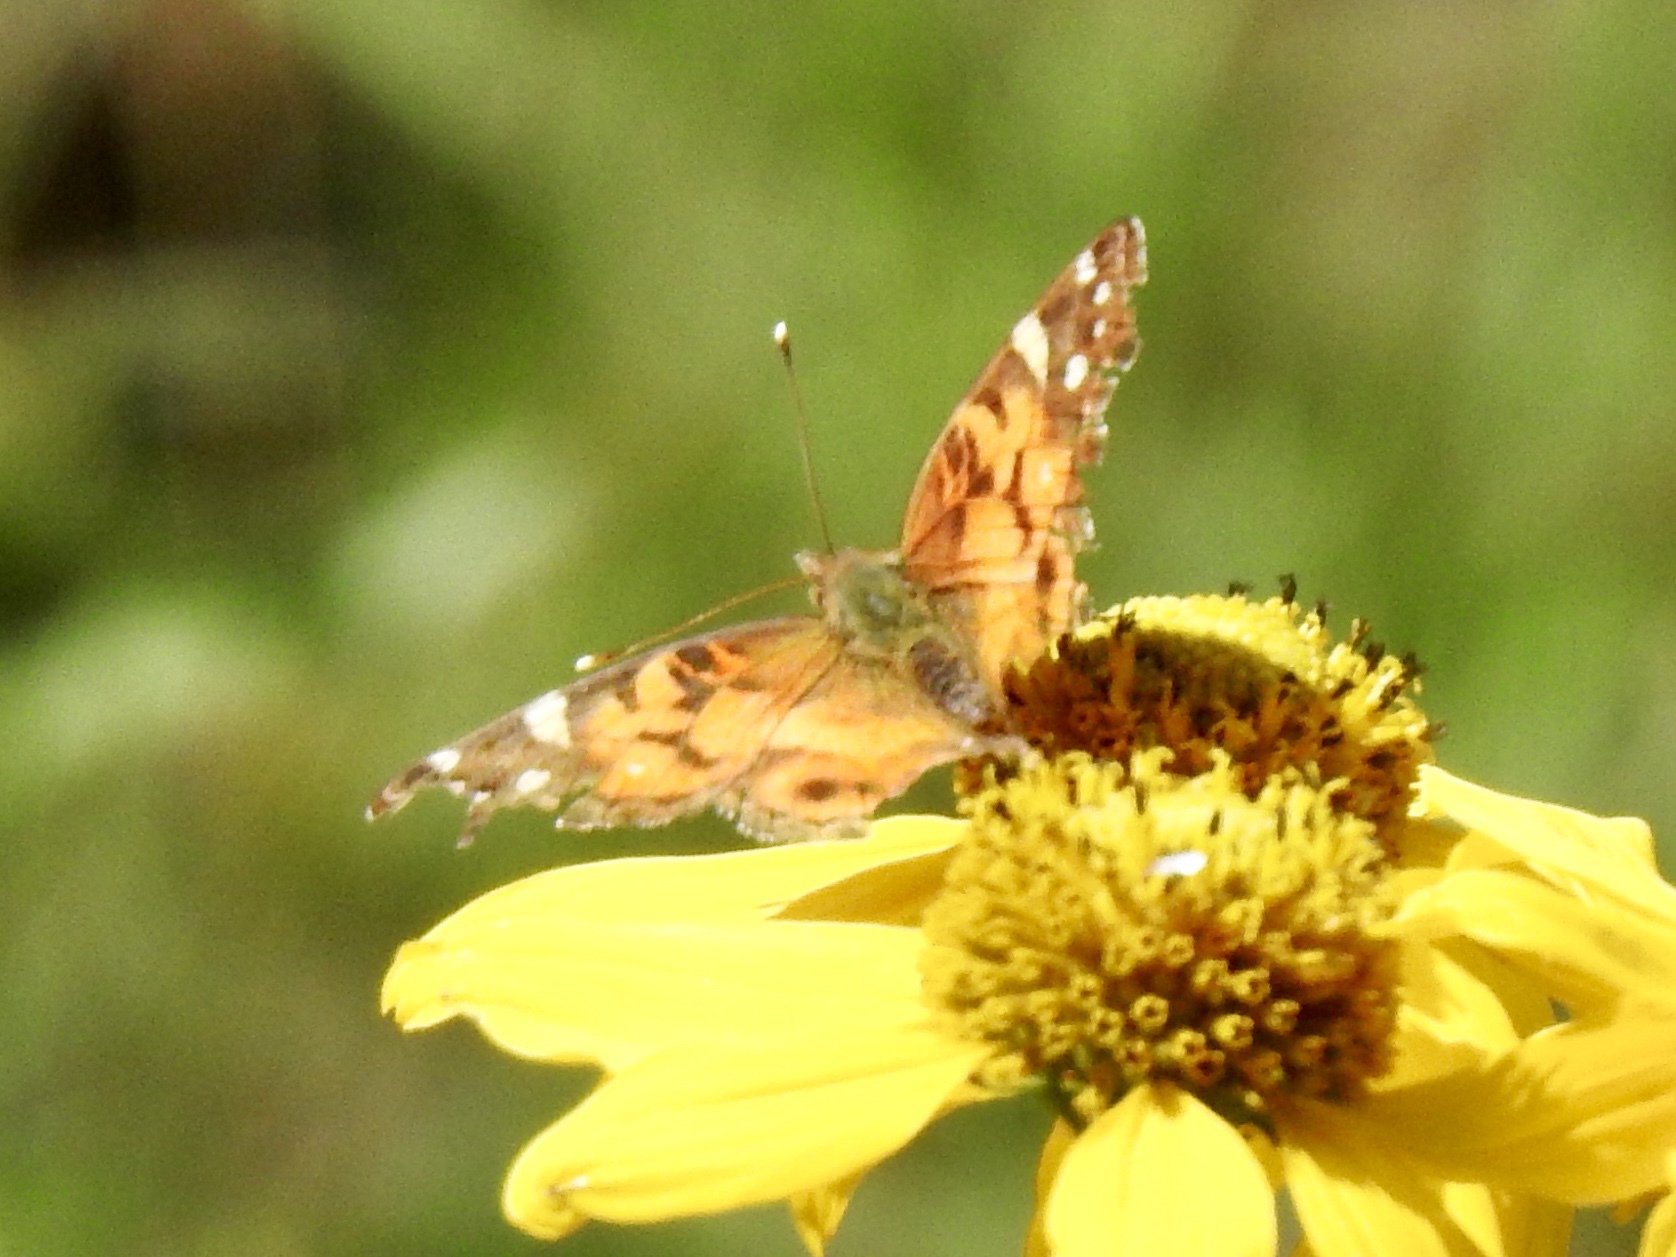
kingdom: Animalia
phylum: Arthropoda
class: Insecta
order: Lepidoptera
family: Nymphalidae
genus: Vanessa
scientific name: Vanessa virginiensis
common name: American lady
